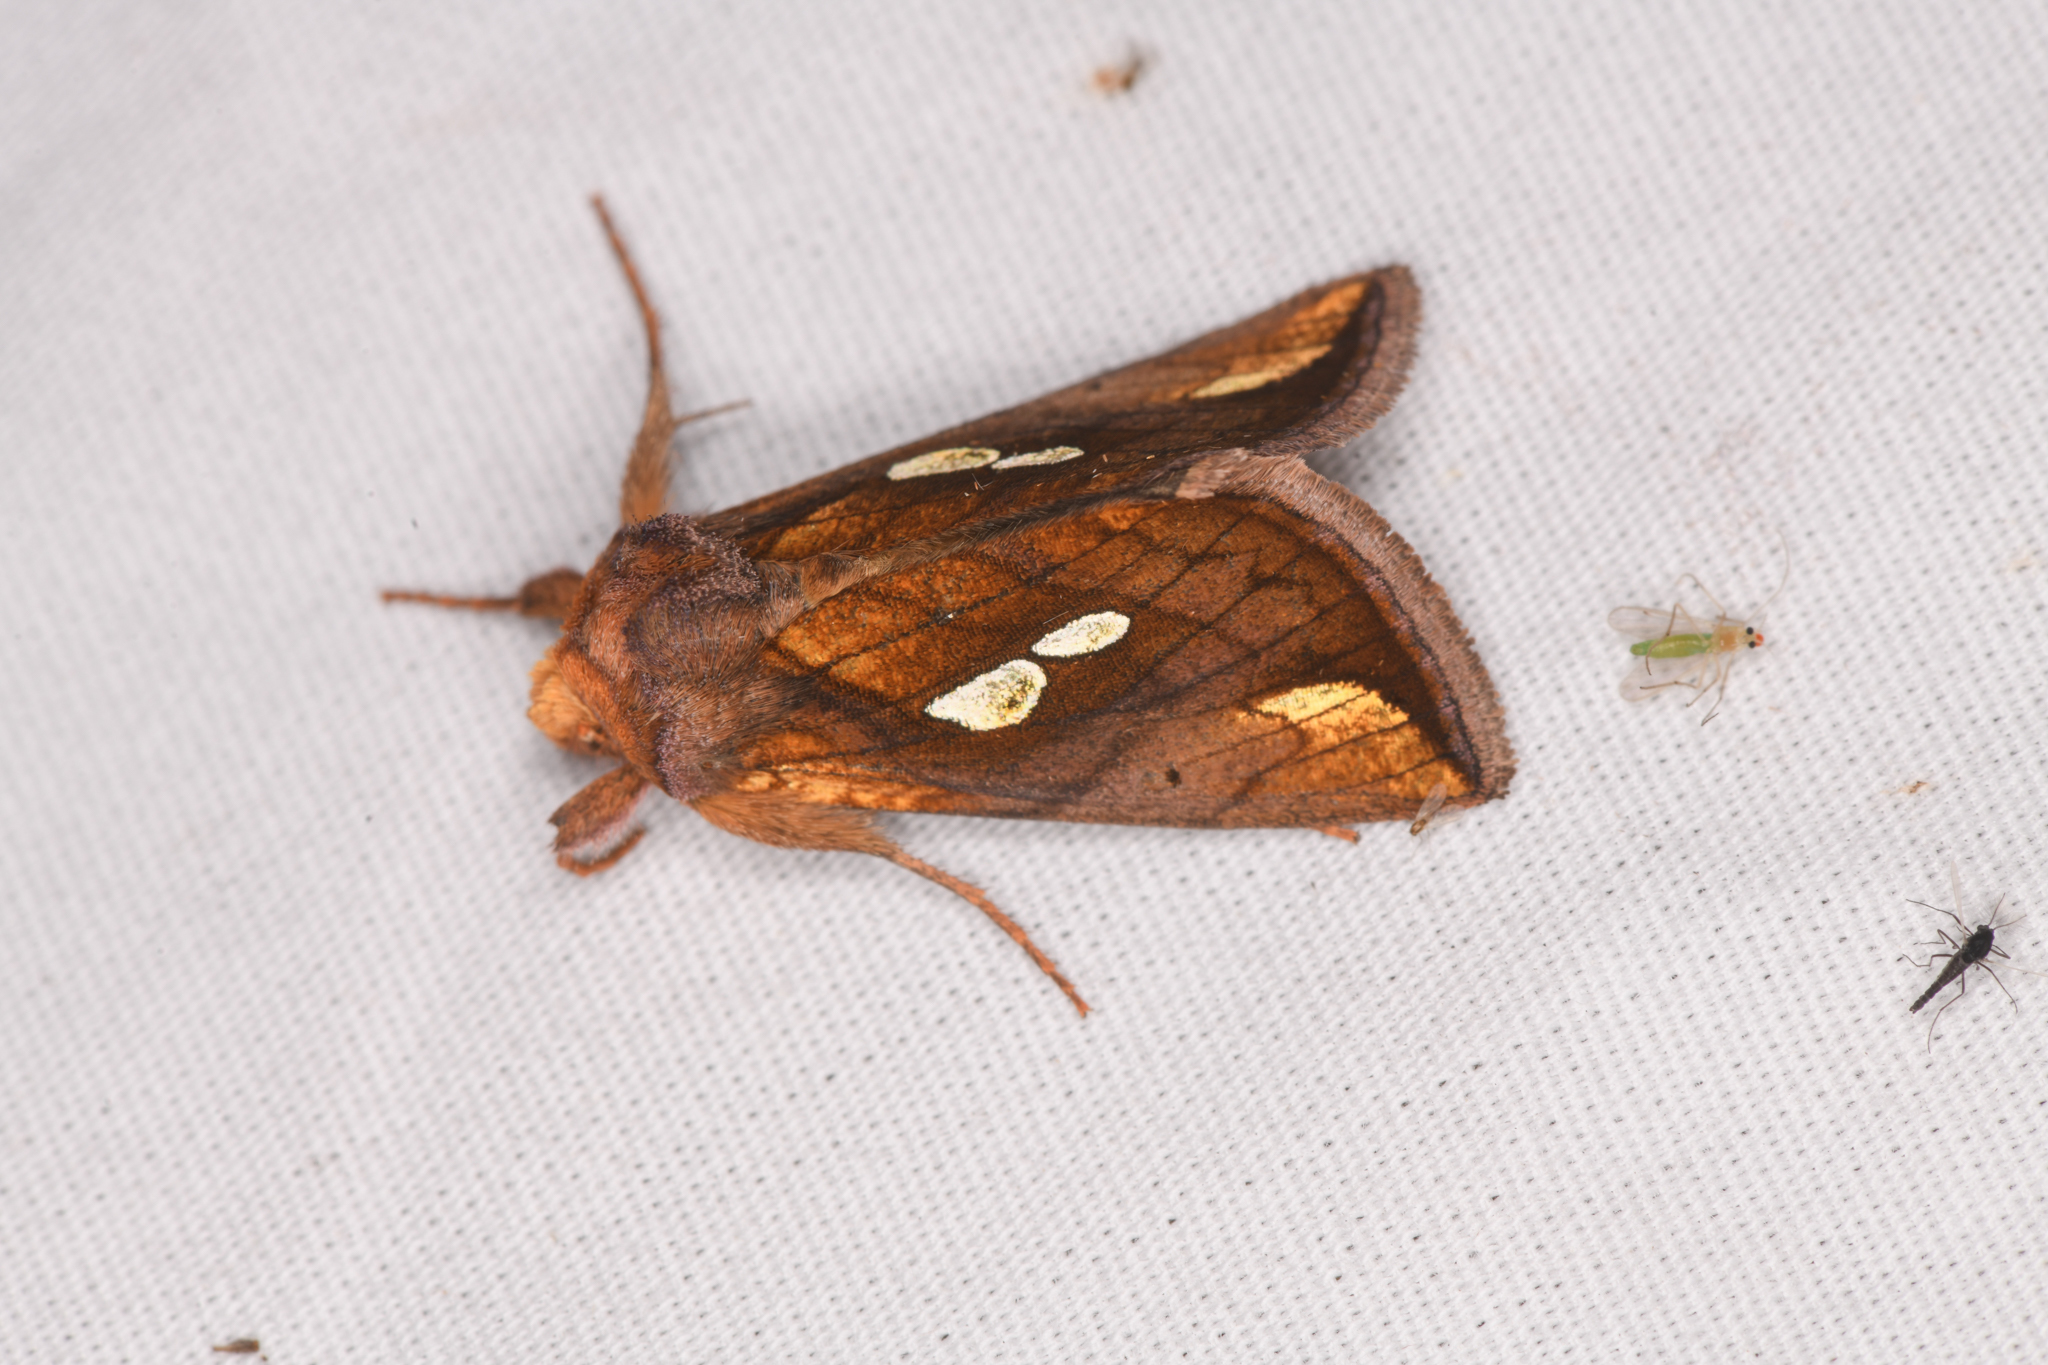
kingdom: Animalia
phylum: Arthropoda
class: Insecta
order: Lepidoptera
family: Noctuidae
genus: Plusia
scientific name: Plusia nichollae
